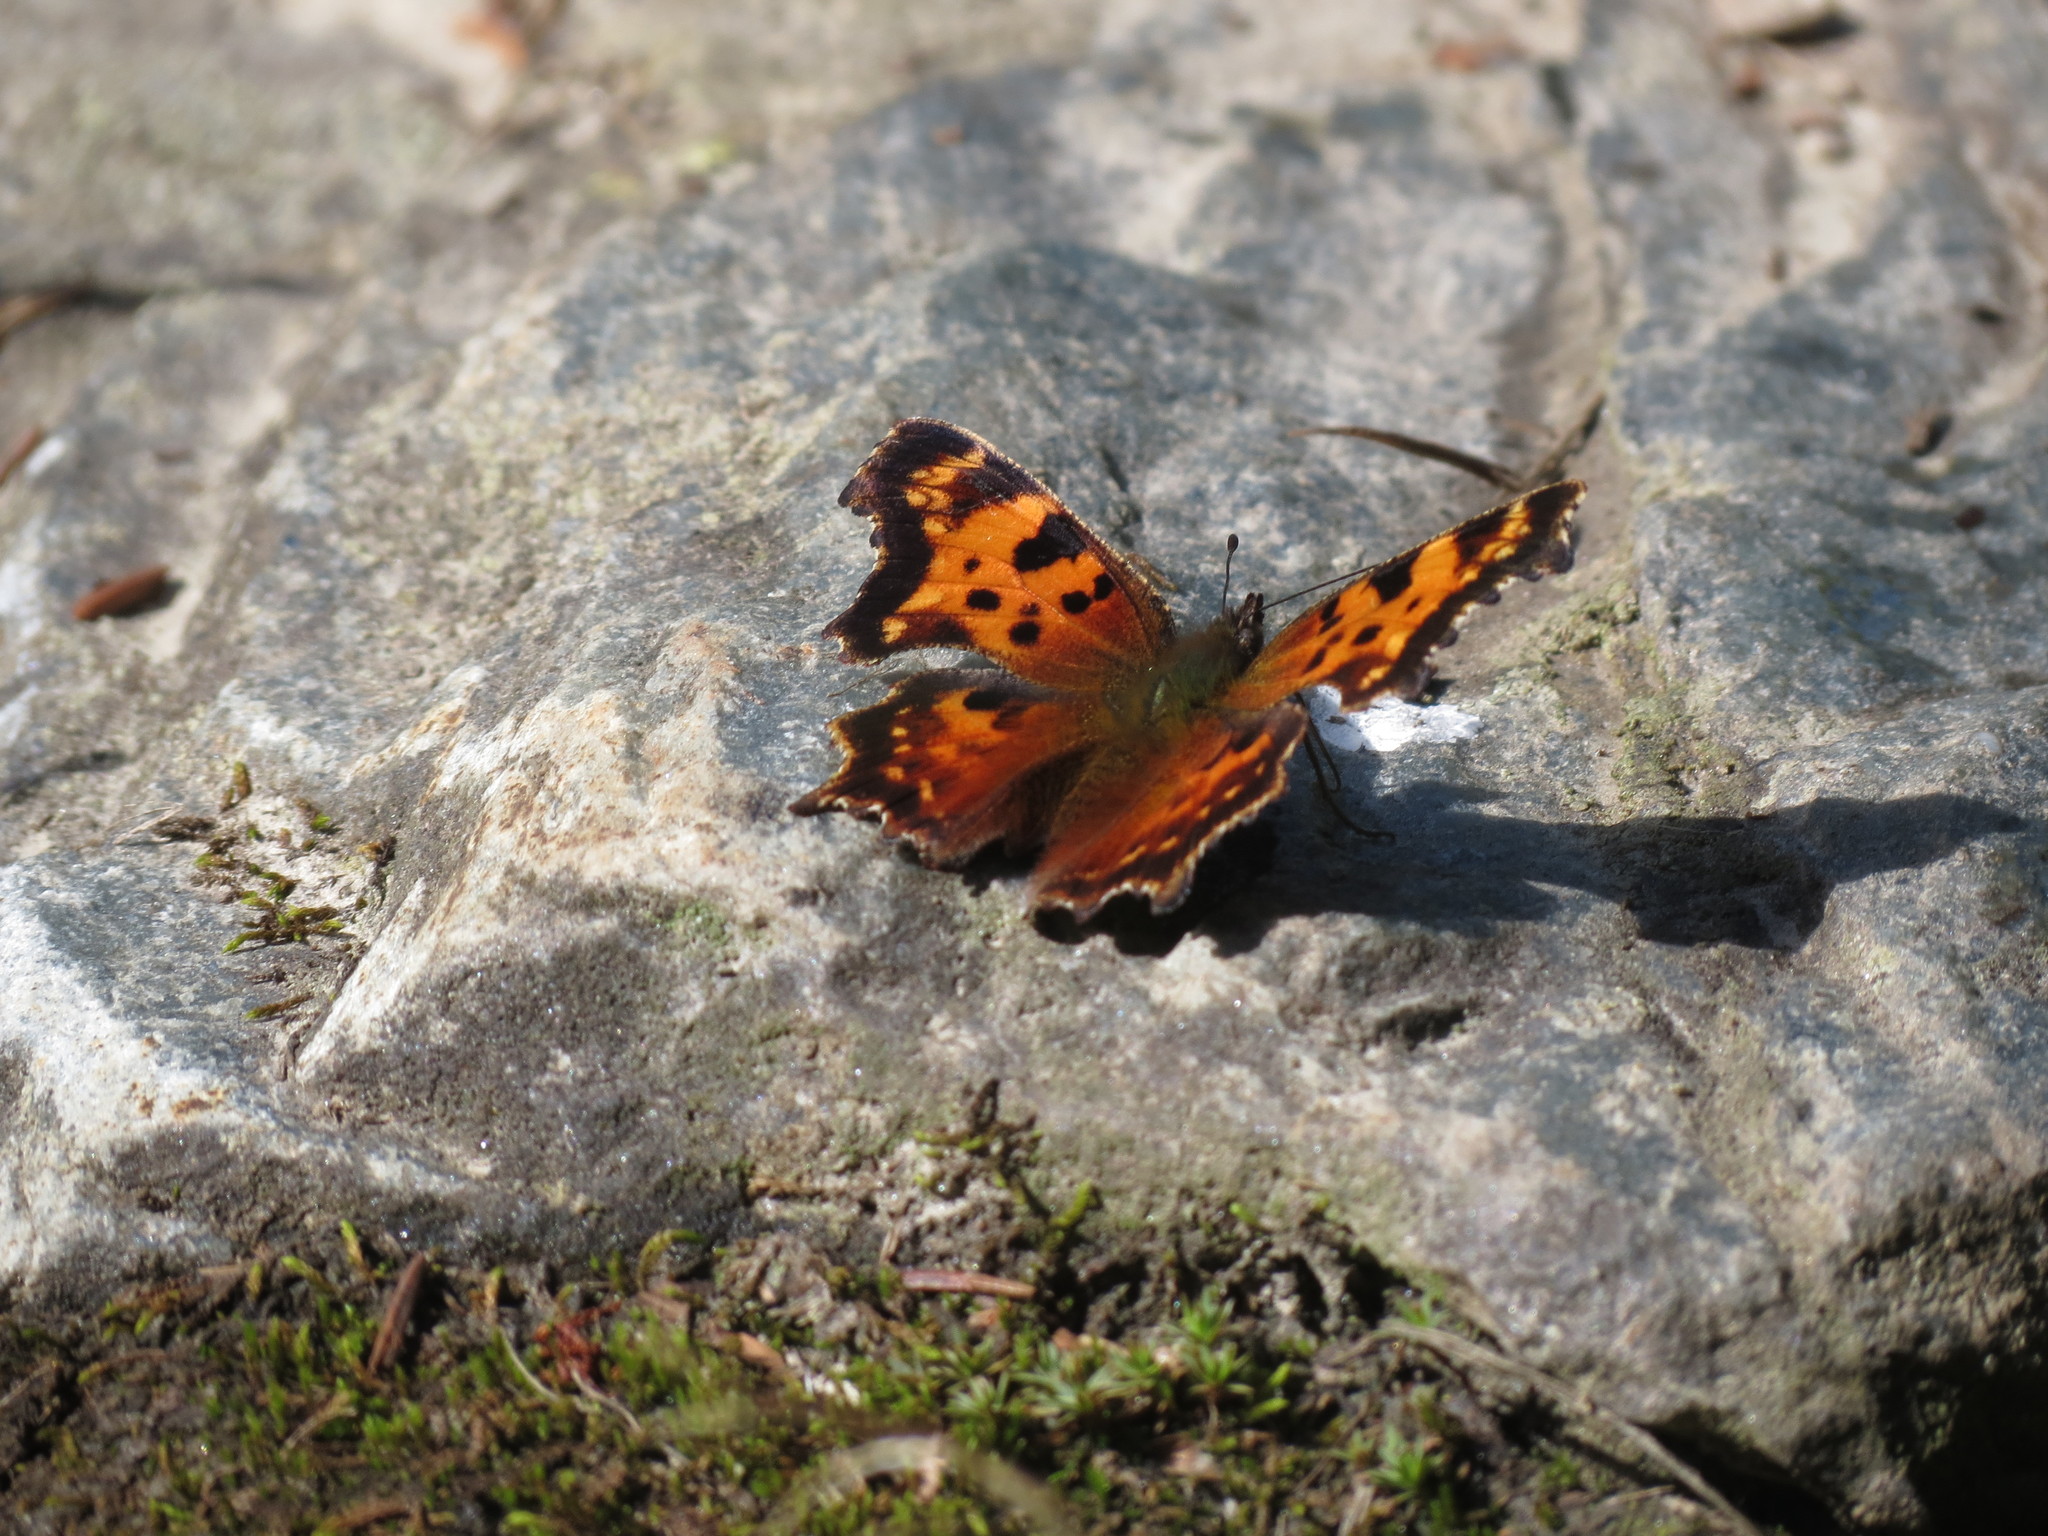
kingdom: Animalia
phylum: Arthropoda
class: Insecta
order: Lepidoptera
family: Nymphalidae
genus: Polygonia
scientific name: Polygonia faunus
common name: Green comma
